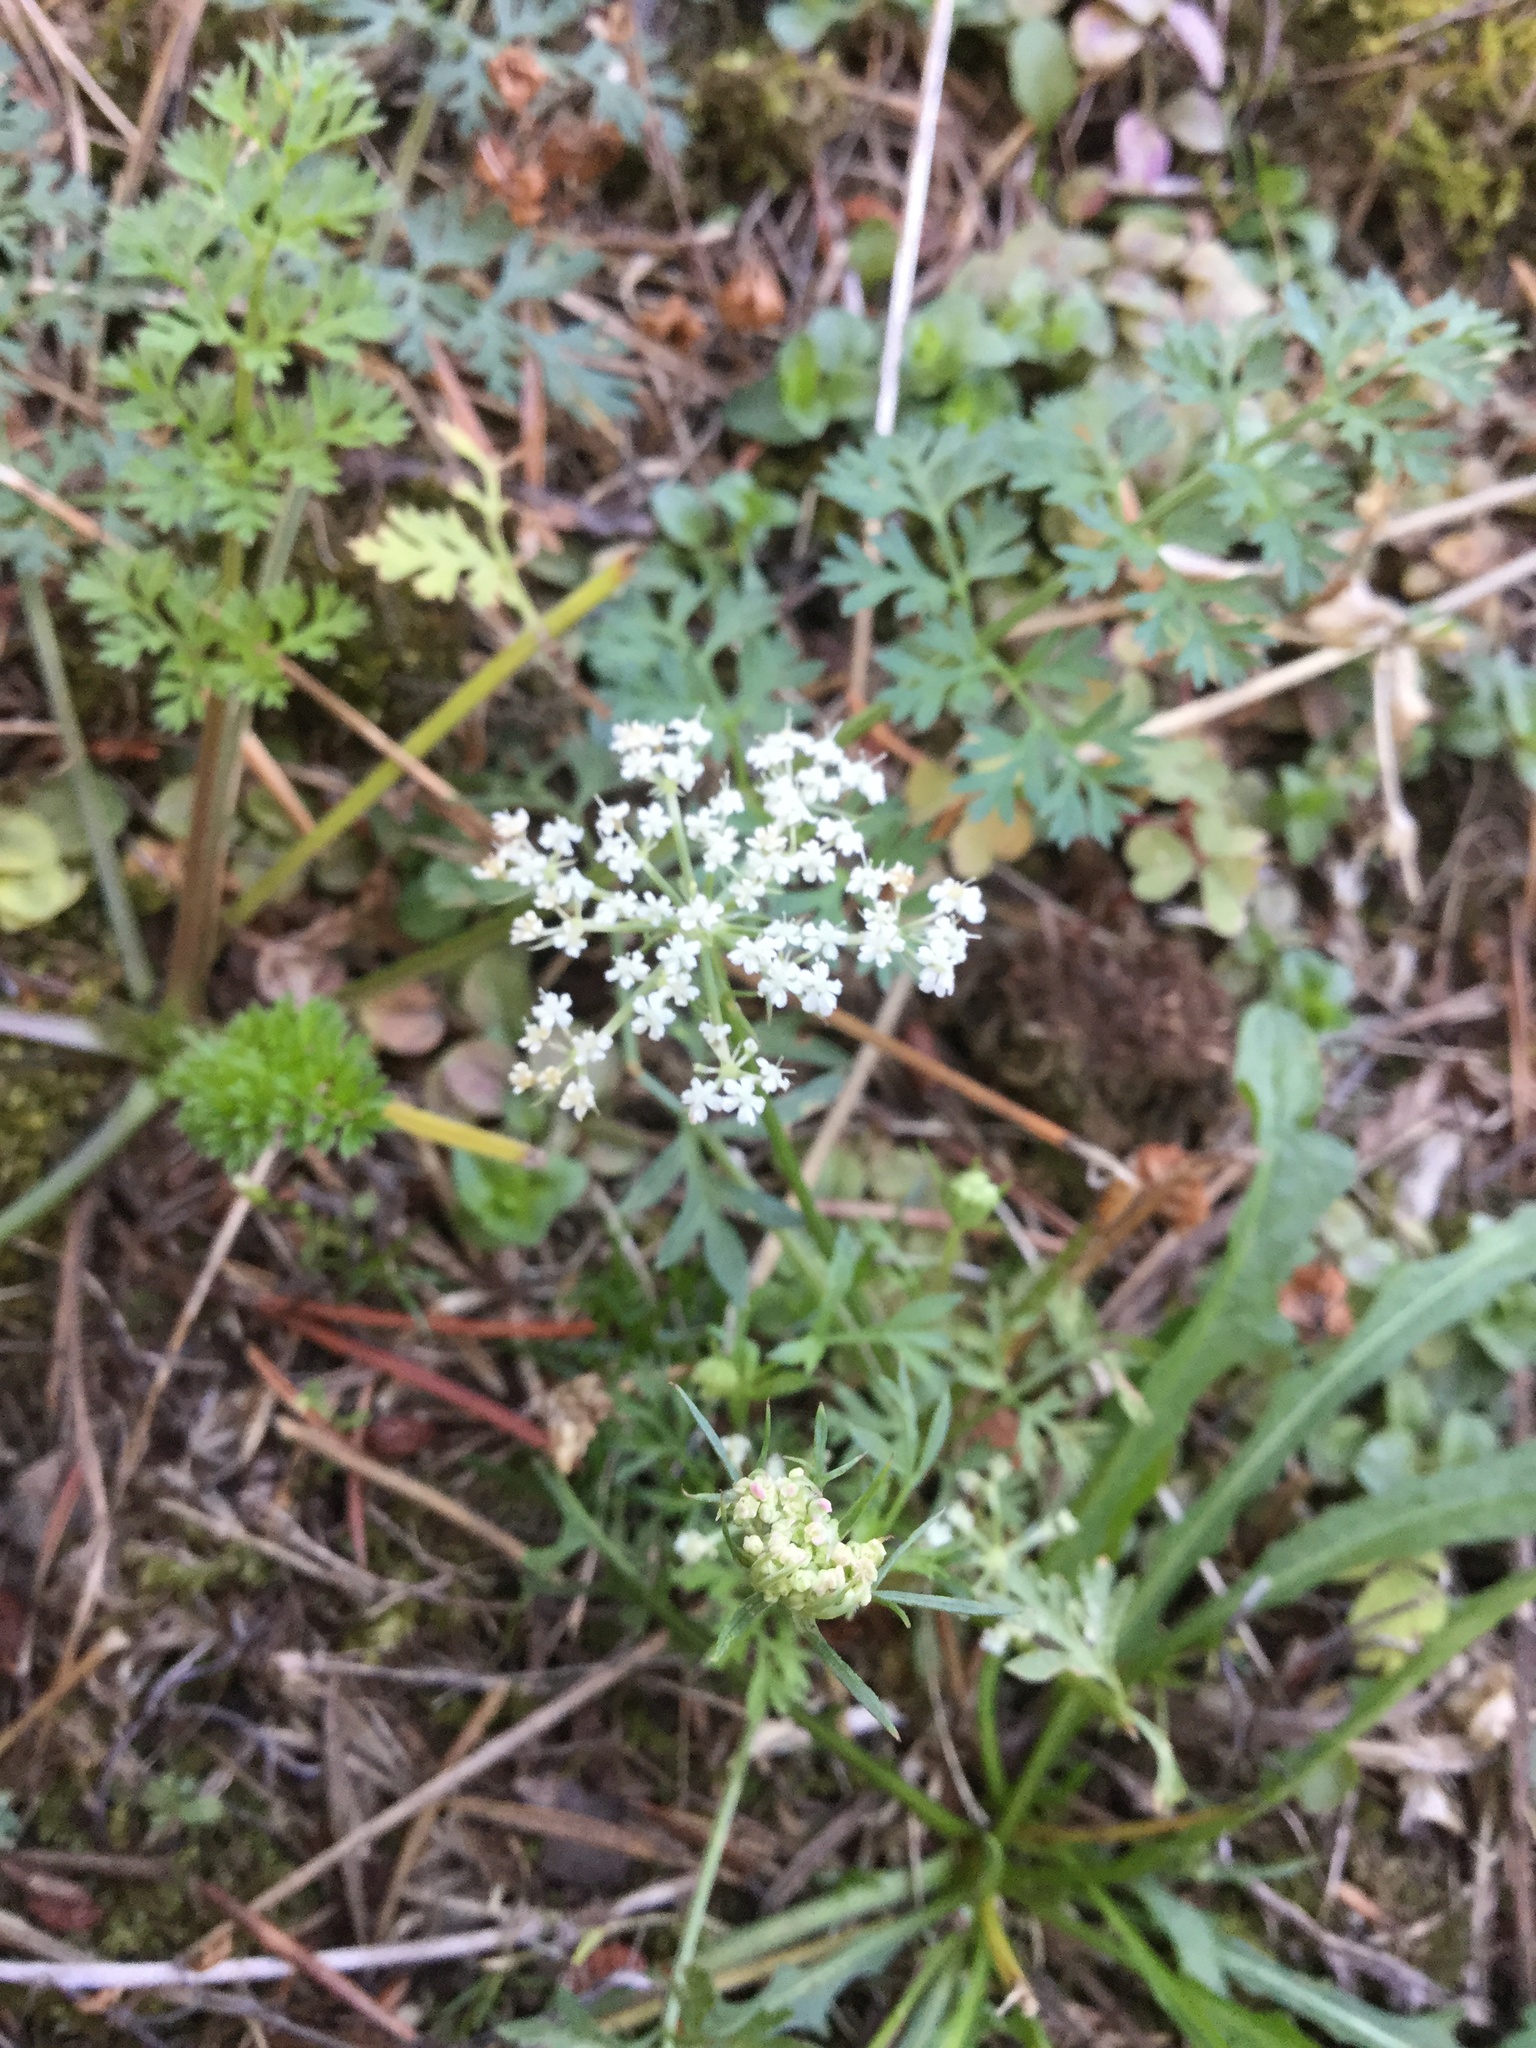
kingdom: Plantae
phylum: Tracheophyta
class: Magnoliopsida
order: Apiales
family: Apiaceae
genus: Daucus
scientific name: Daucus carota
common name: Wild carrot
